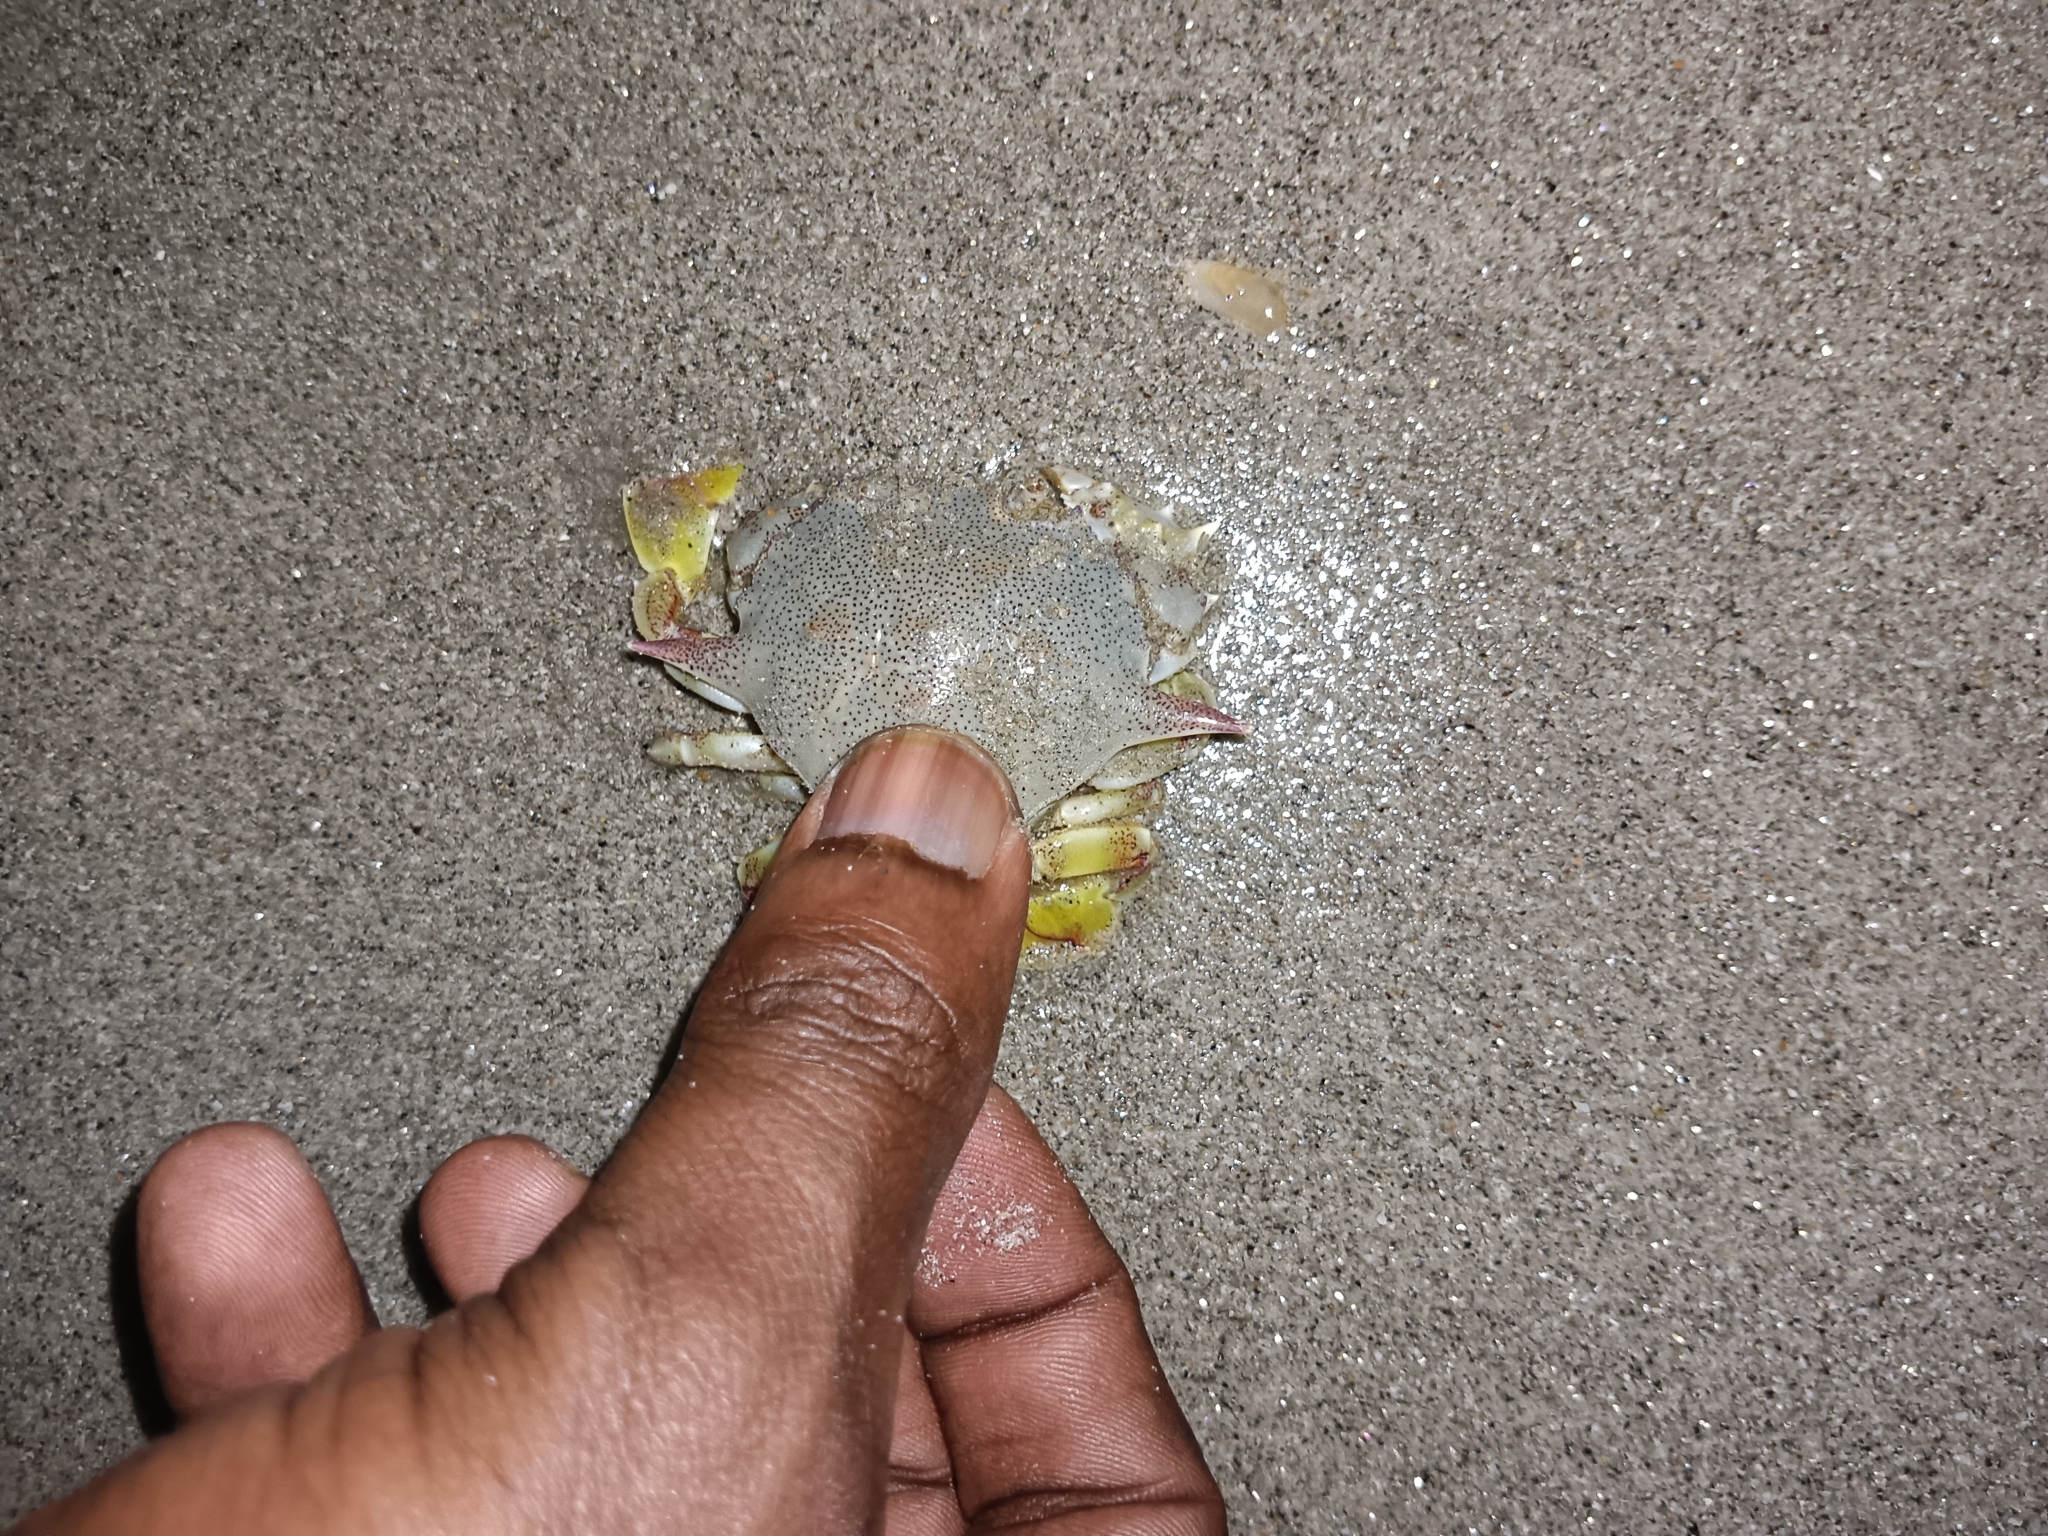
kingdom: Animalia
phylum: Arthropoda
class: Malacostraca
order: Decapoda
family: Matutidae
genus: Matuta
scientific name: Matuta victor
